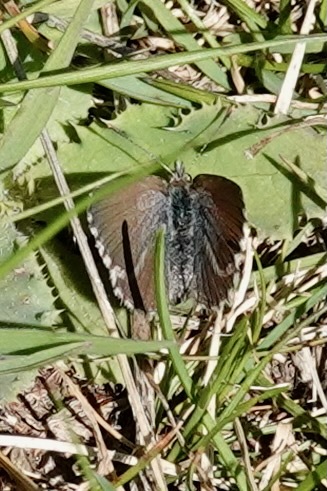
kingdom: Animalia
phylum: Arthropoda
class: Insecta
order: Lepidoptera
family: Lycaenidae
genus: Zizina
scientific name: Zizina oxleyi
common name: Southern blue
